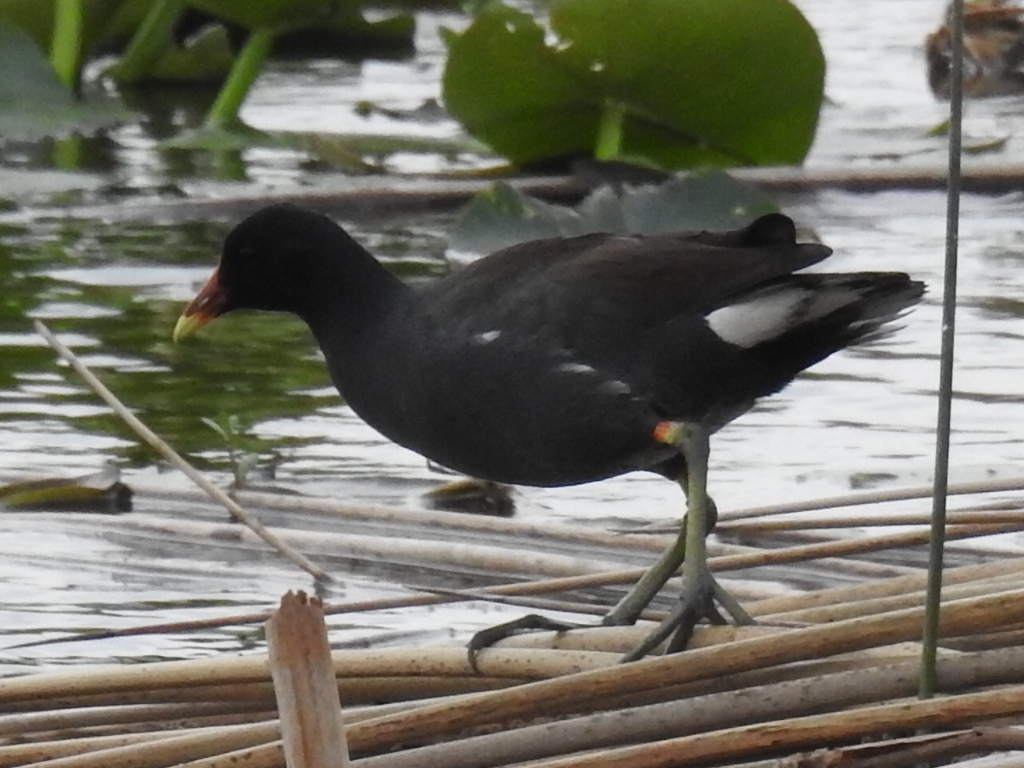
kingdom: Animalia
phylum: Chordata
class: Aves
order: Gruiformes
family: Rallidae
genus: Gallinula
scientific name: Gallinula chloropus
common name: Common moorhen
